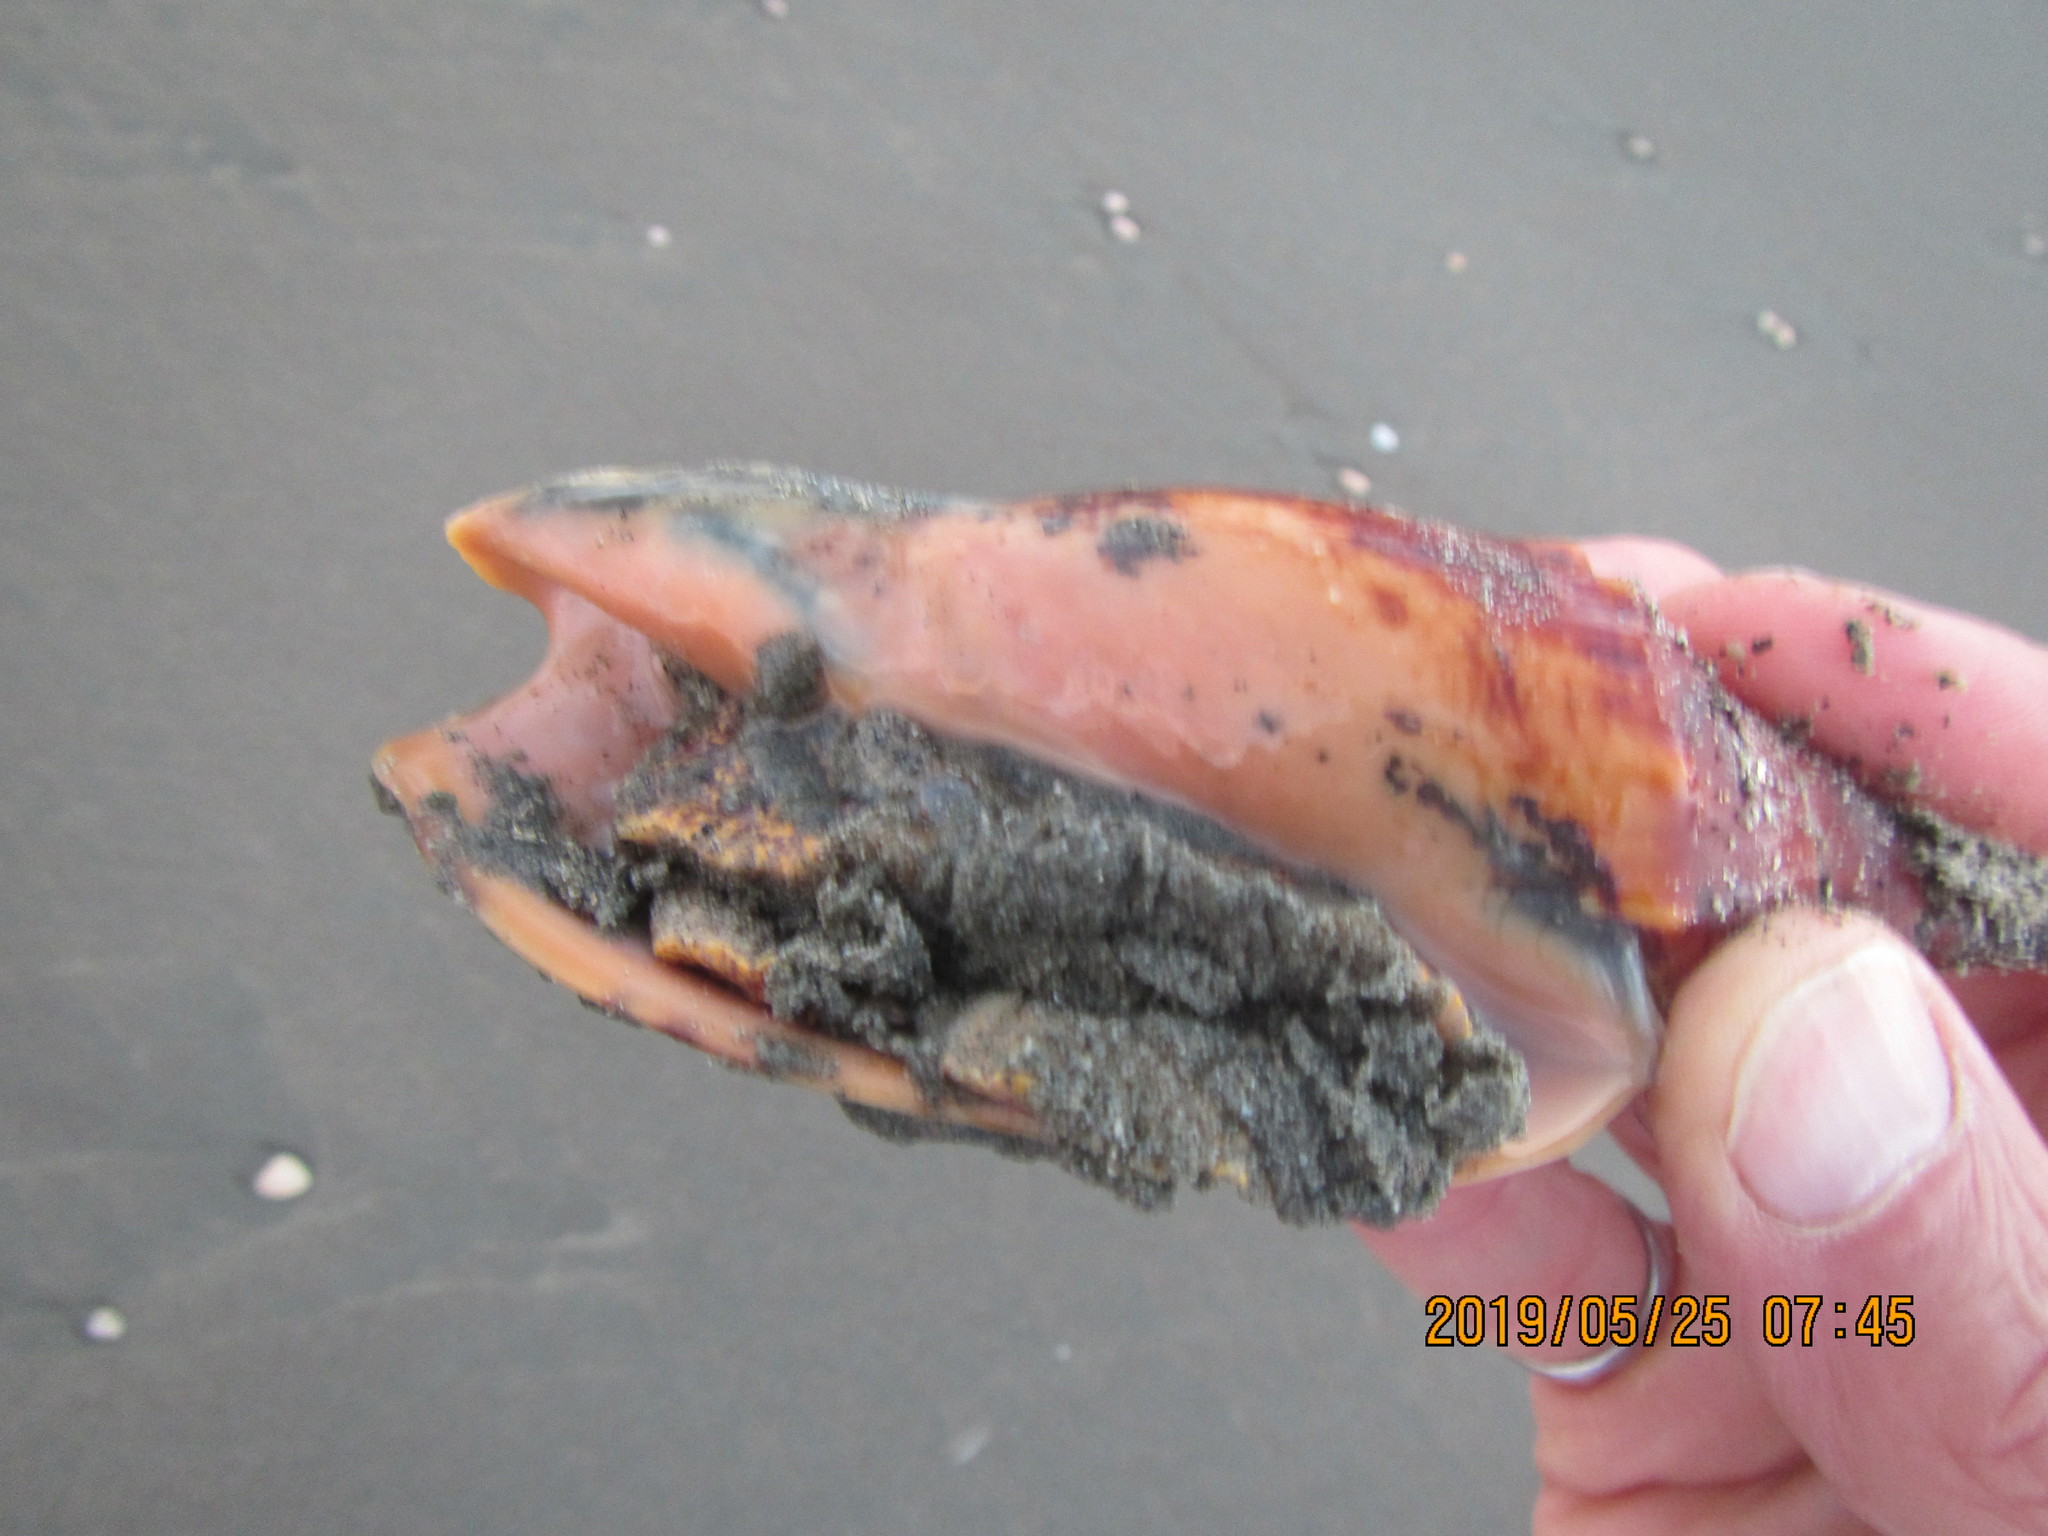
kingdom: Animalia
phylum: Mollusca
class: Gastropoda
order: Neogastropoda
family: Volutidae
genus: Alcithoe
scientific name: Alcithoe arabica
